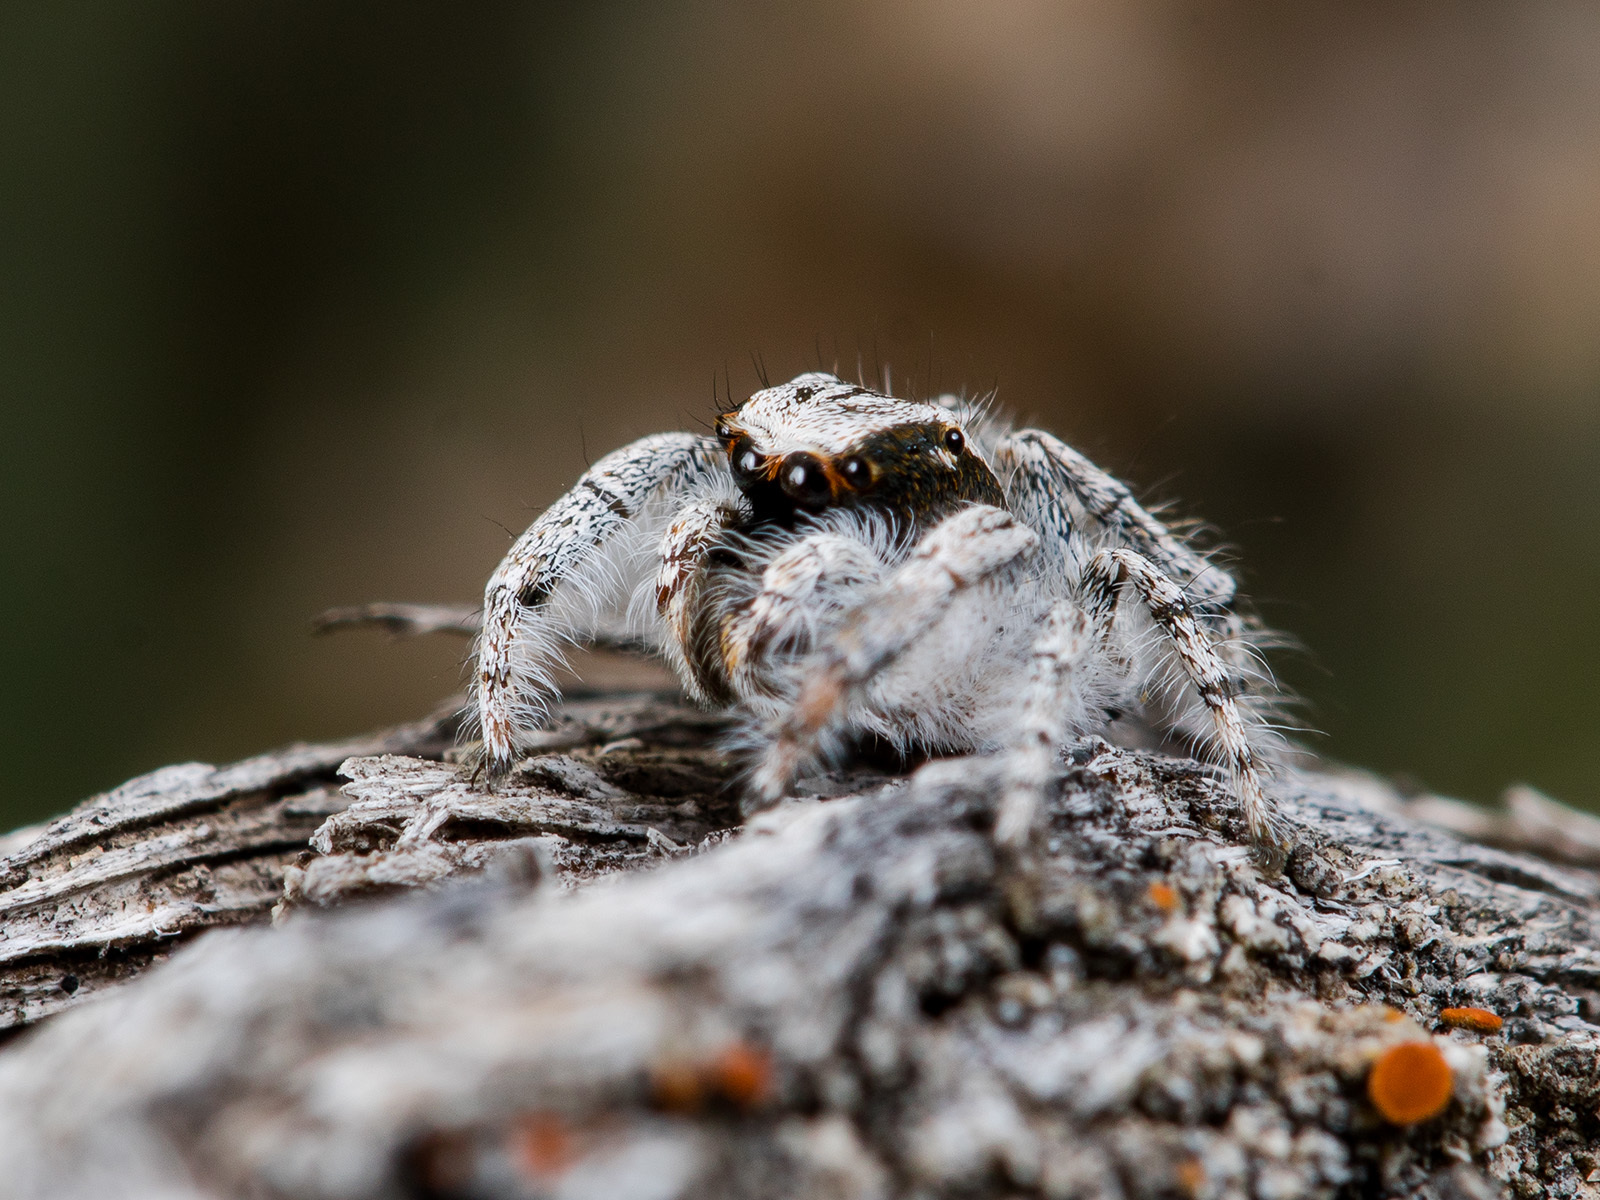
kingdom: Animalia
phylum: Arthropoda
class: Arachnida
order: Araneae
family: Salticidae
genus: Marusyllus
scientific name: Marusyllus aralicus
